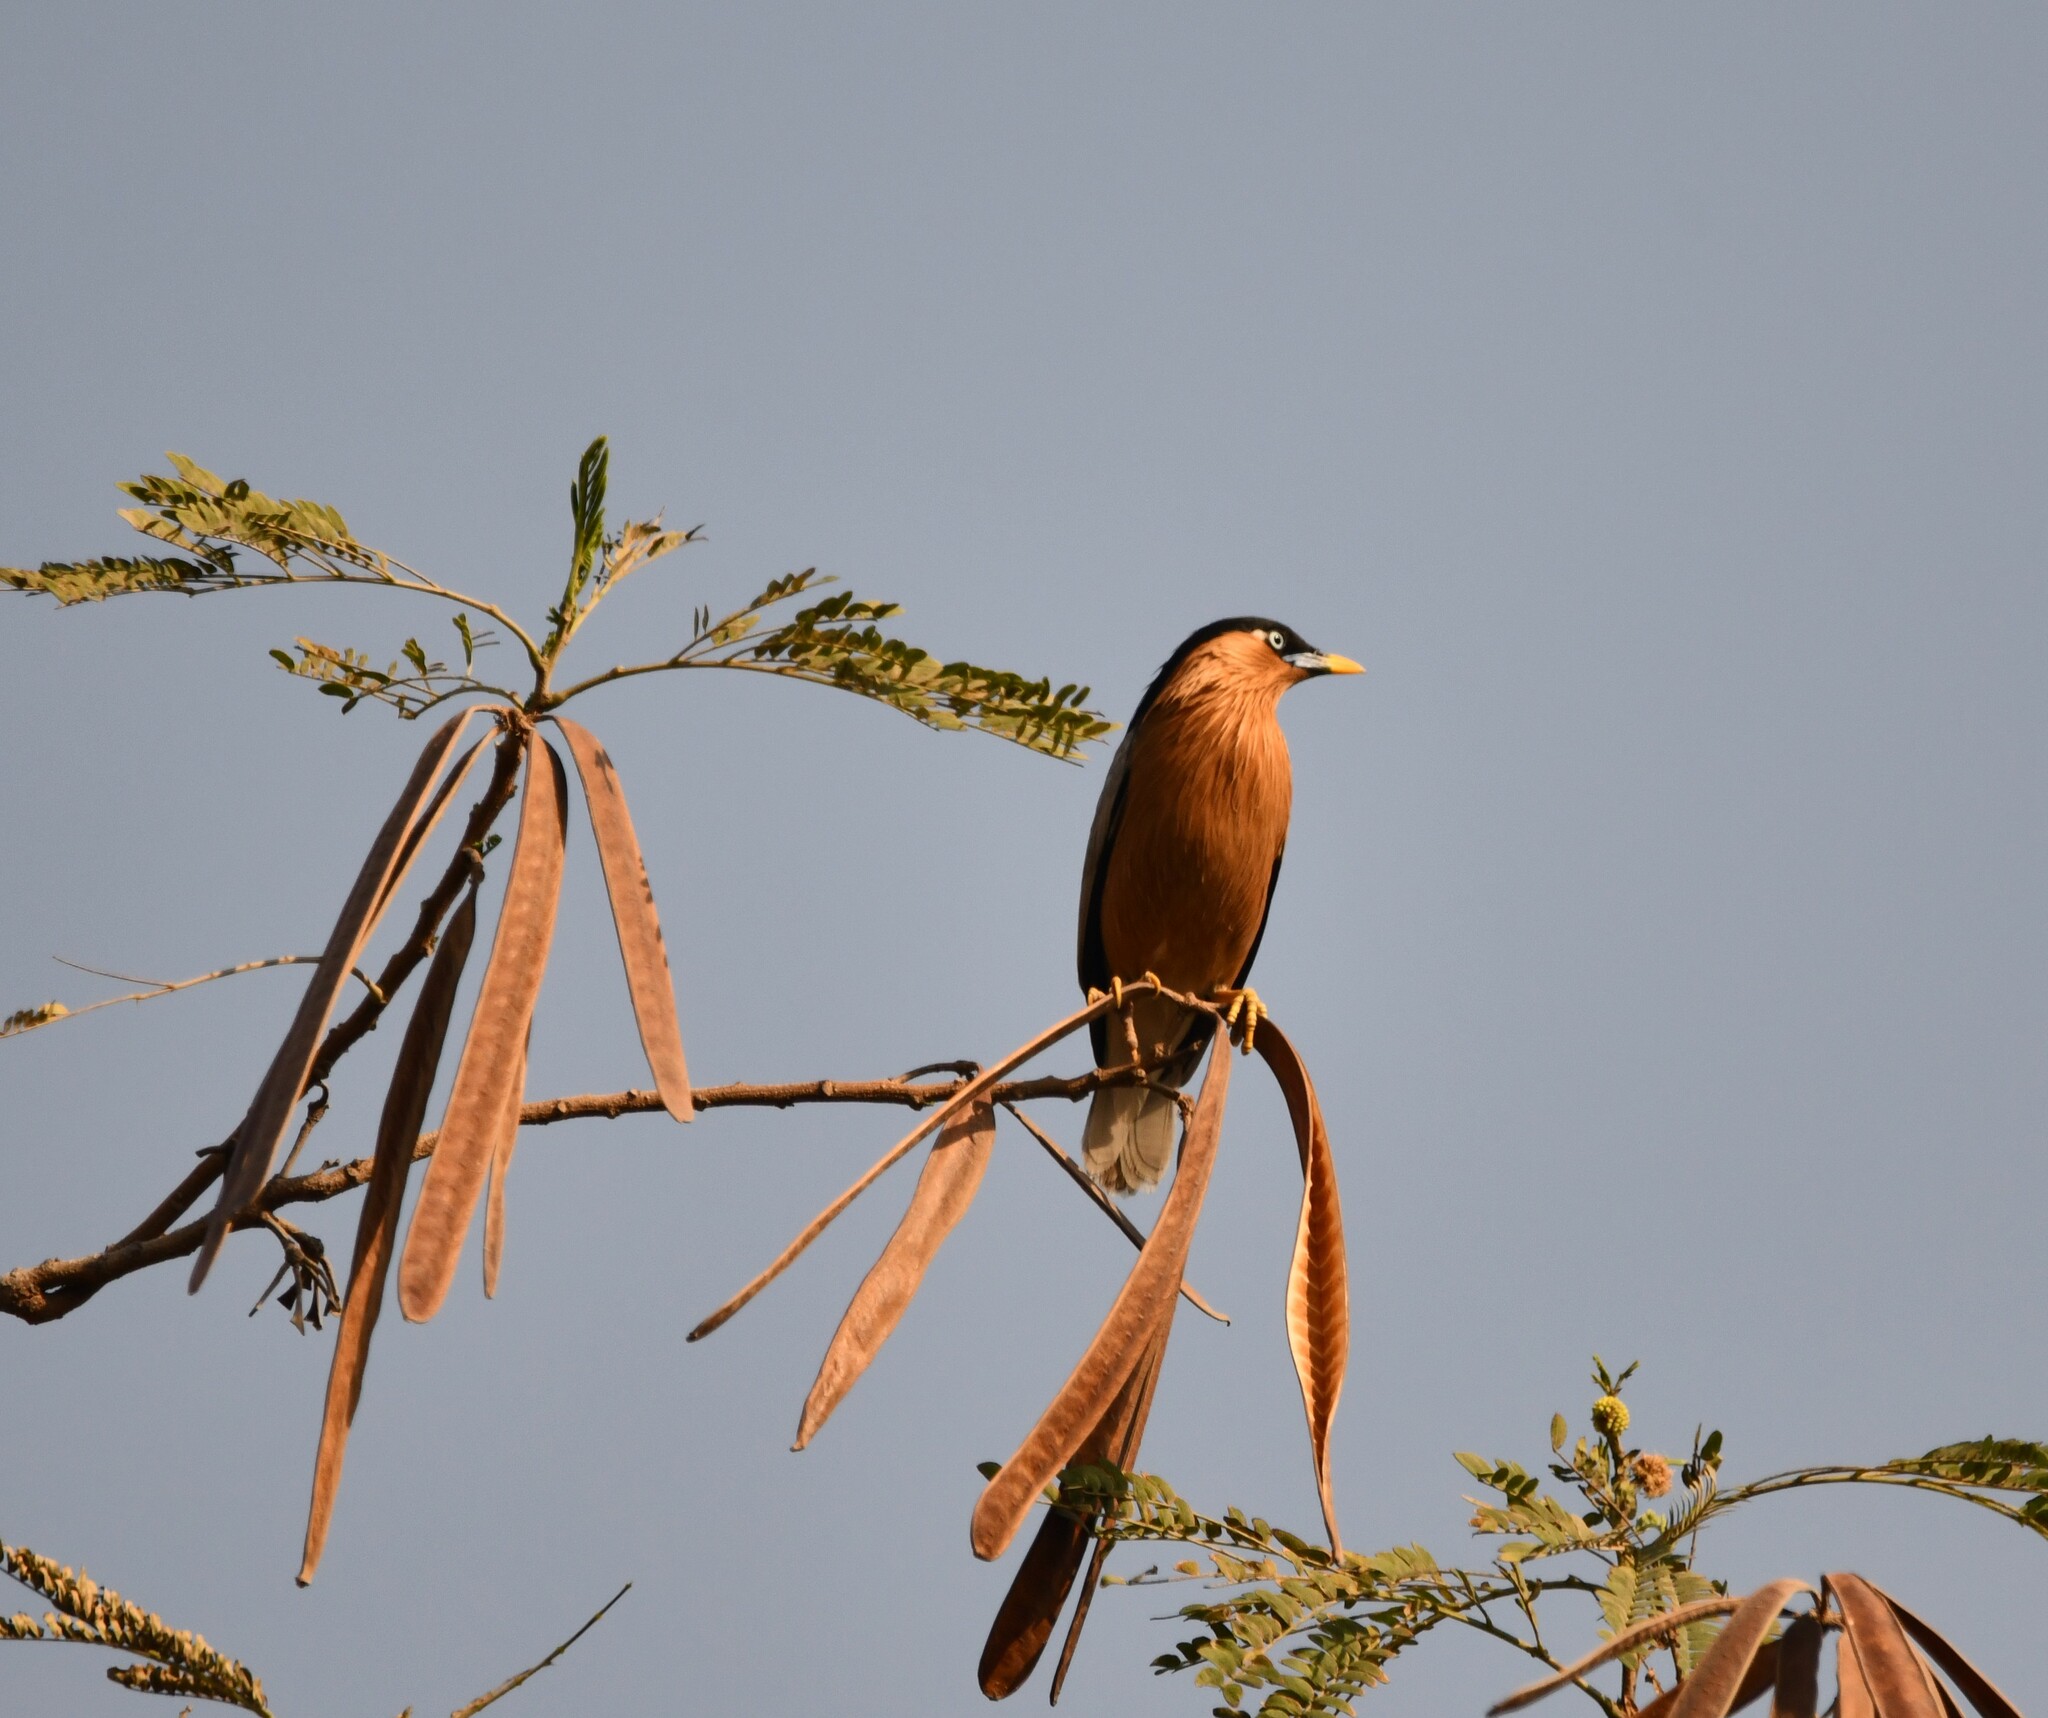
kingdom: Animalia
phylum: Chordata
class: Aves
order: Passeriformes
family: Sturnidae
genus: Sturnia
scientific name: Sturnia pagodarum
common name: Brahminy starling
